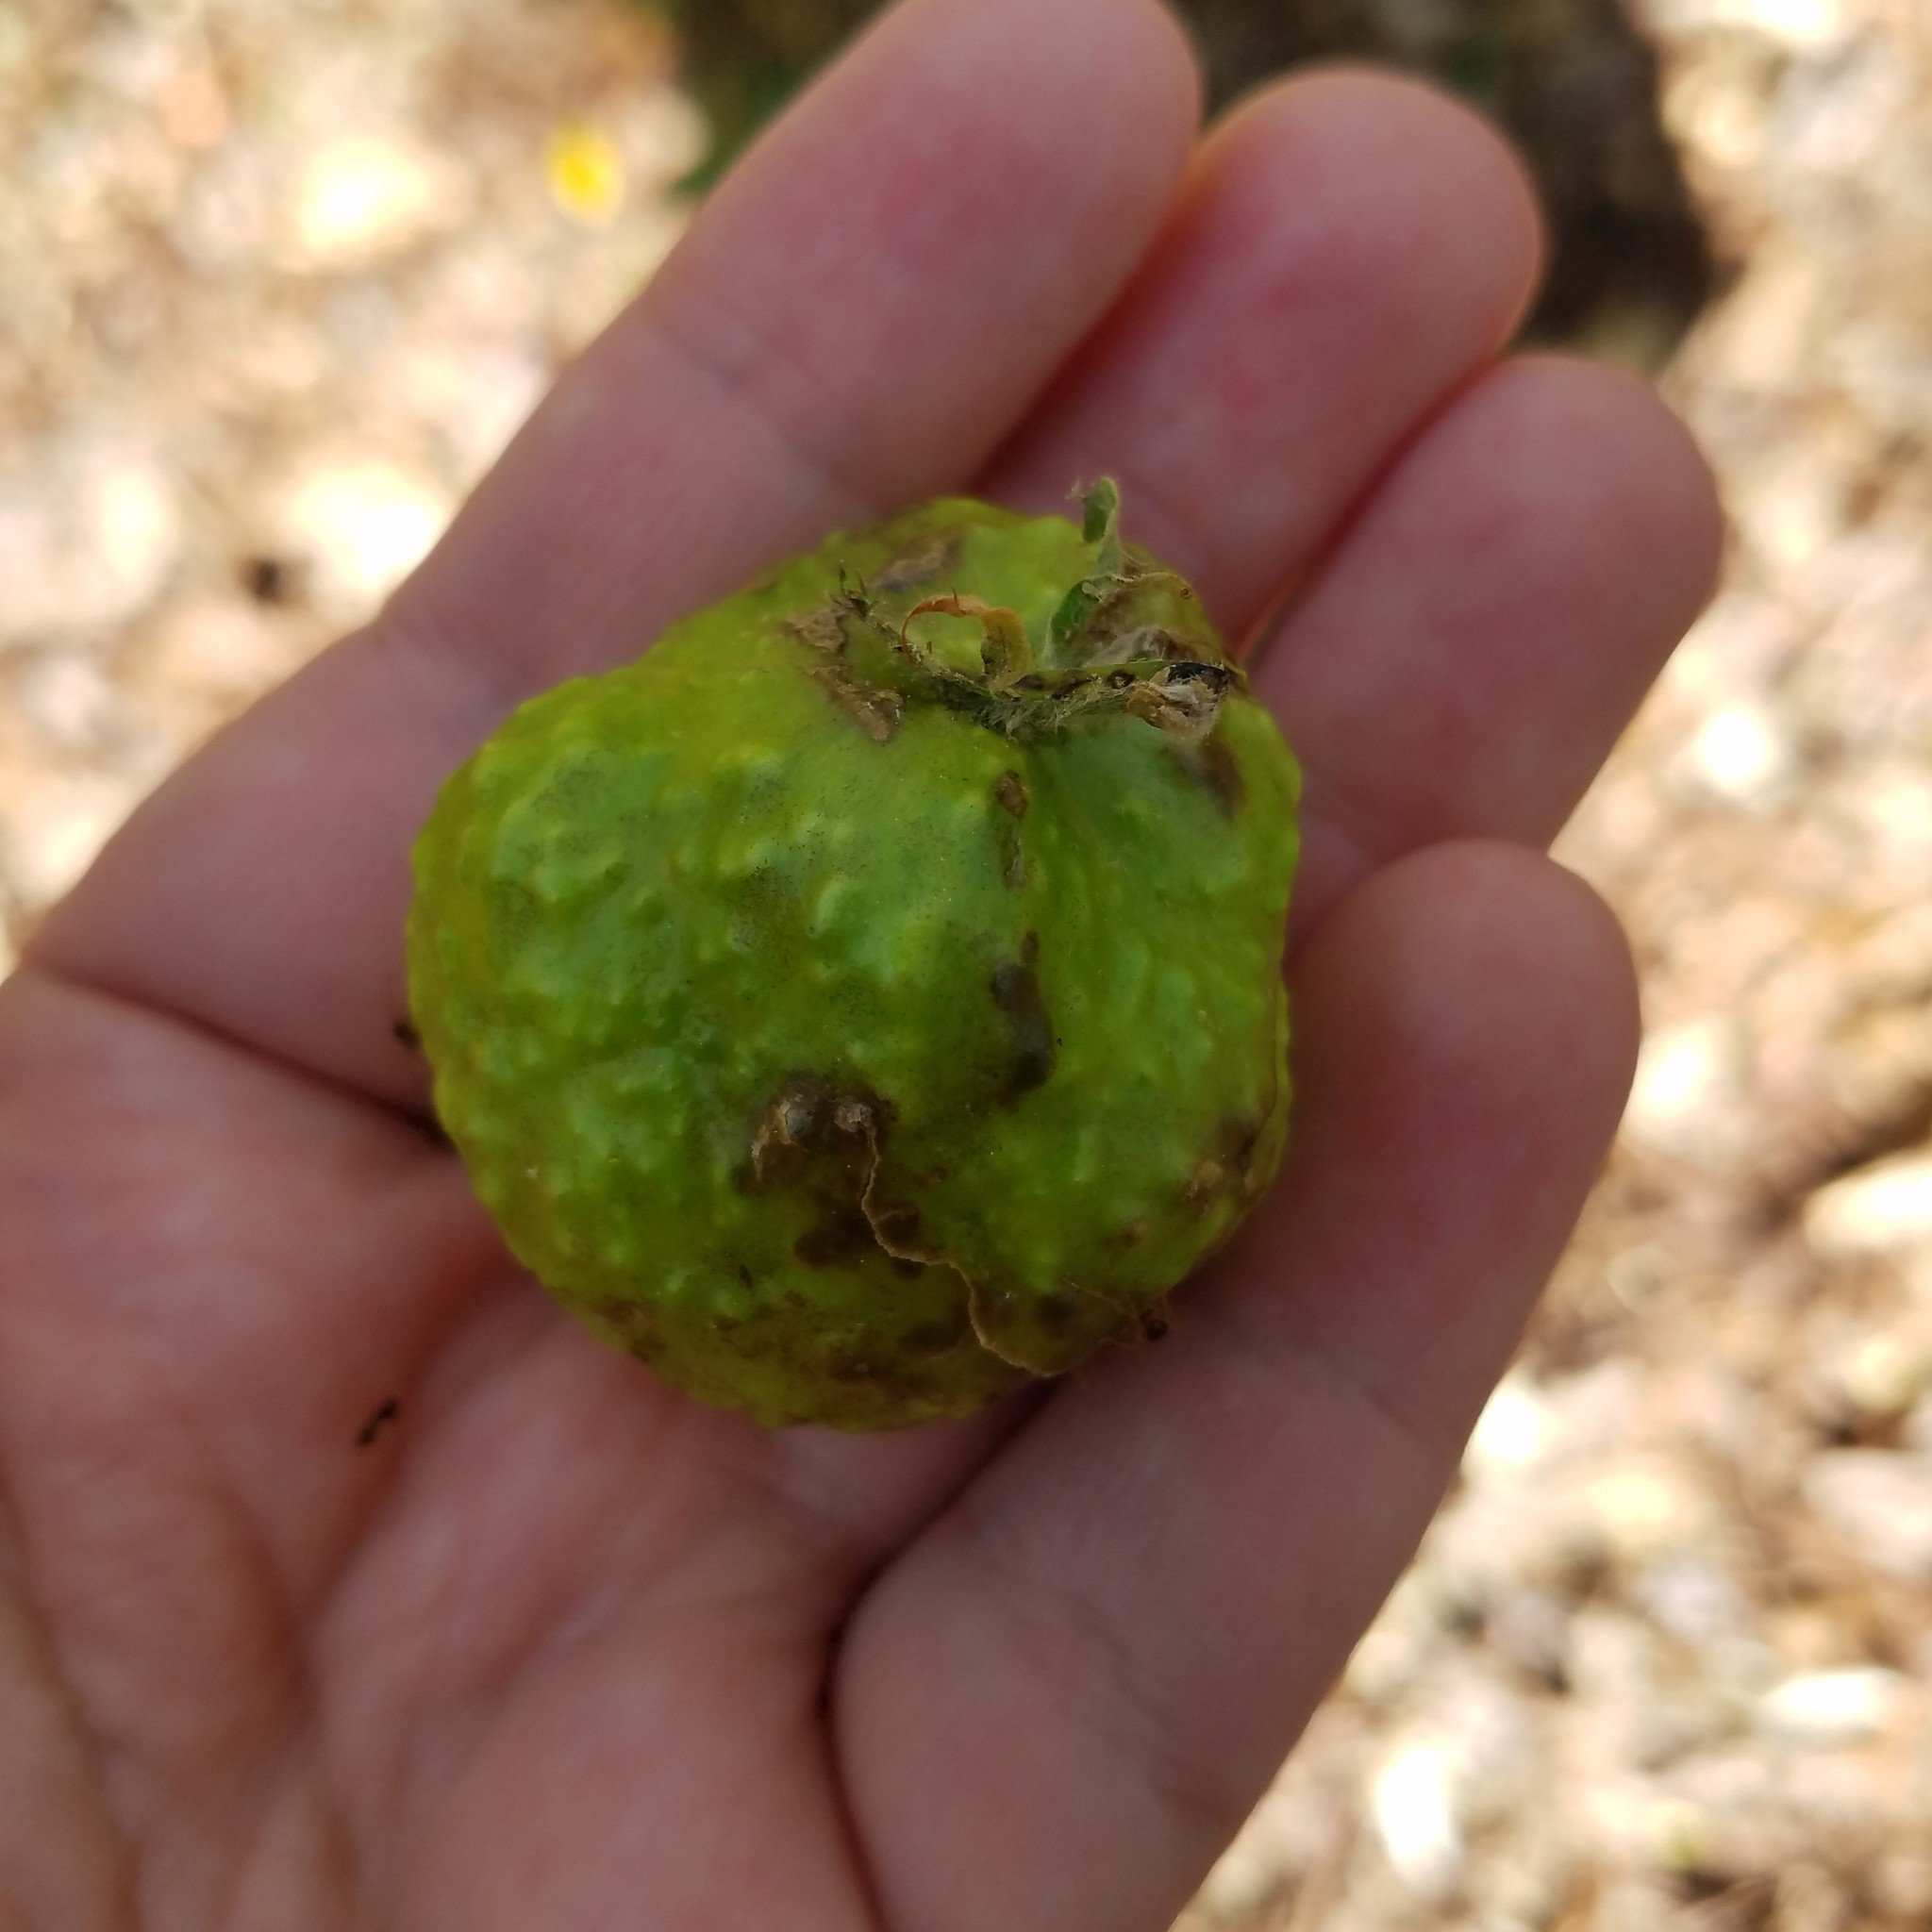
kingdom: Animalia
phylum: Arthropoda
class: Insecta
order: Hymenoptera
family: Cynipidae
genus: Amphibolips
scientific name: Amphibolips
